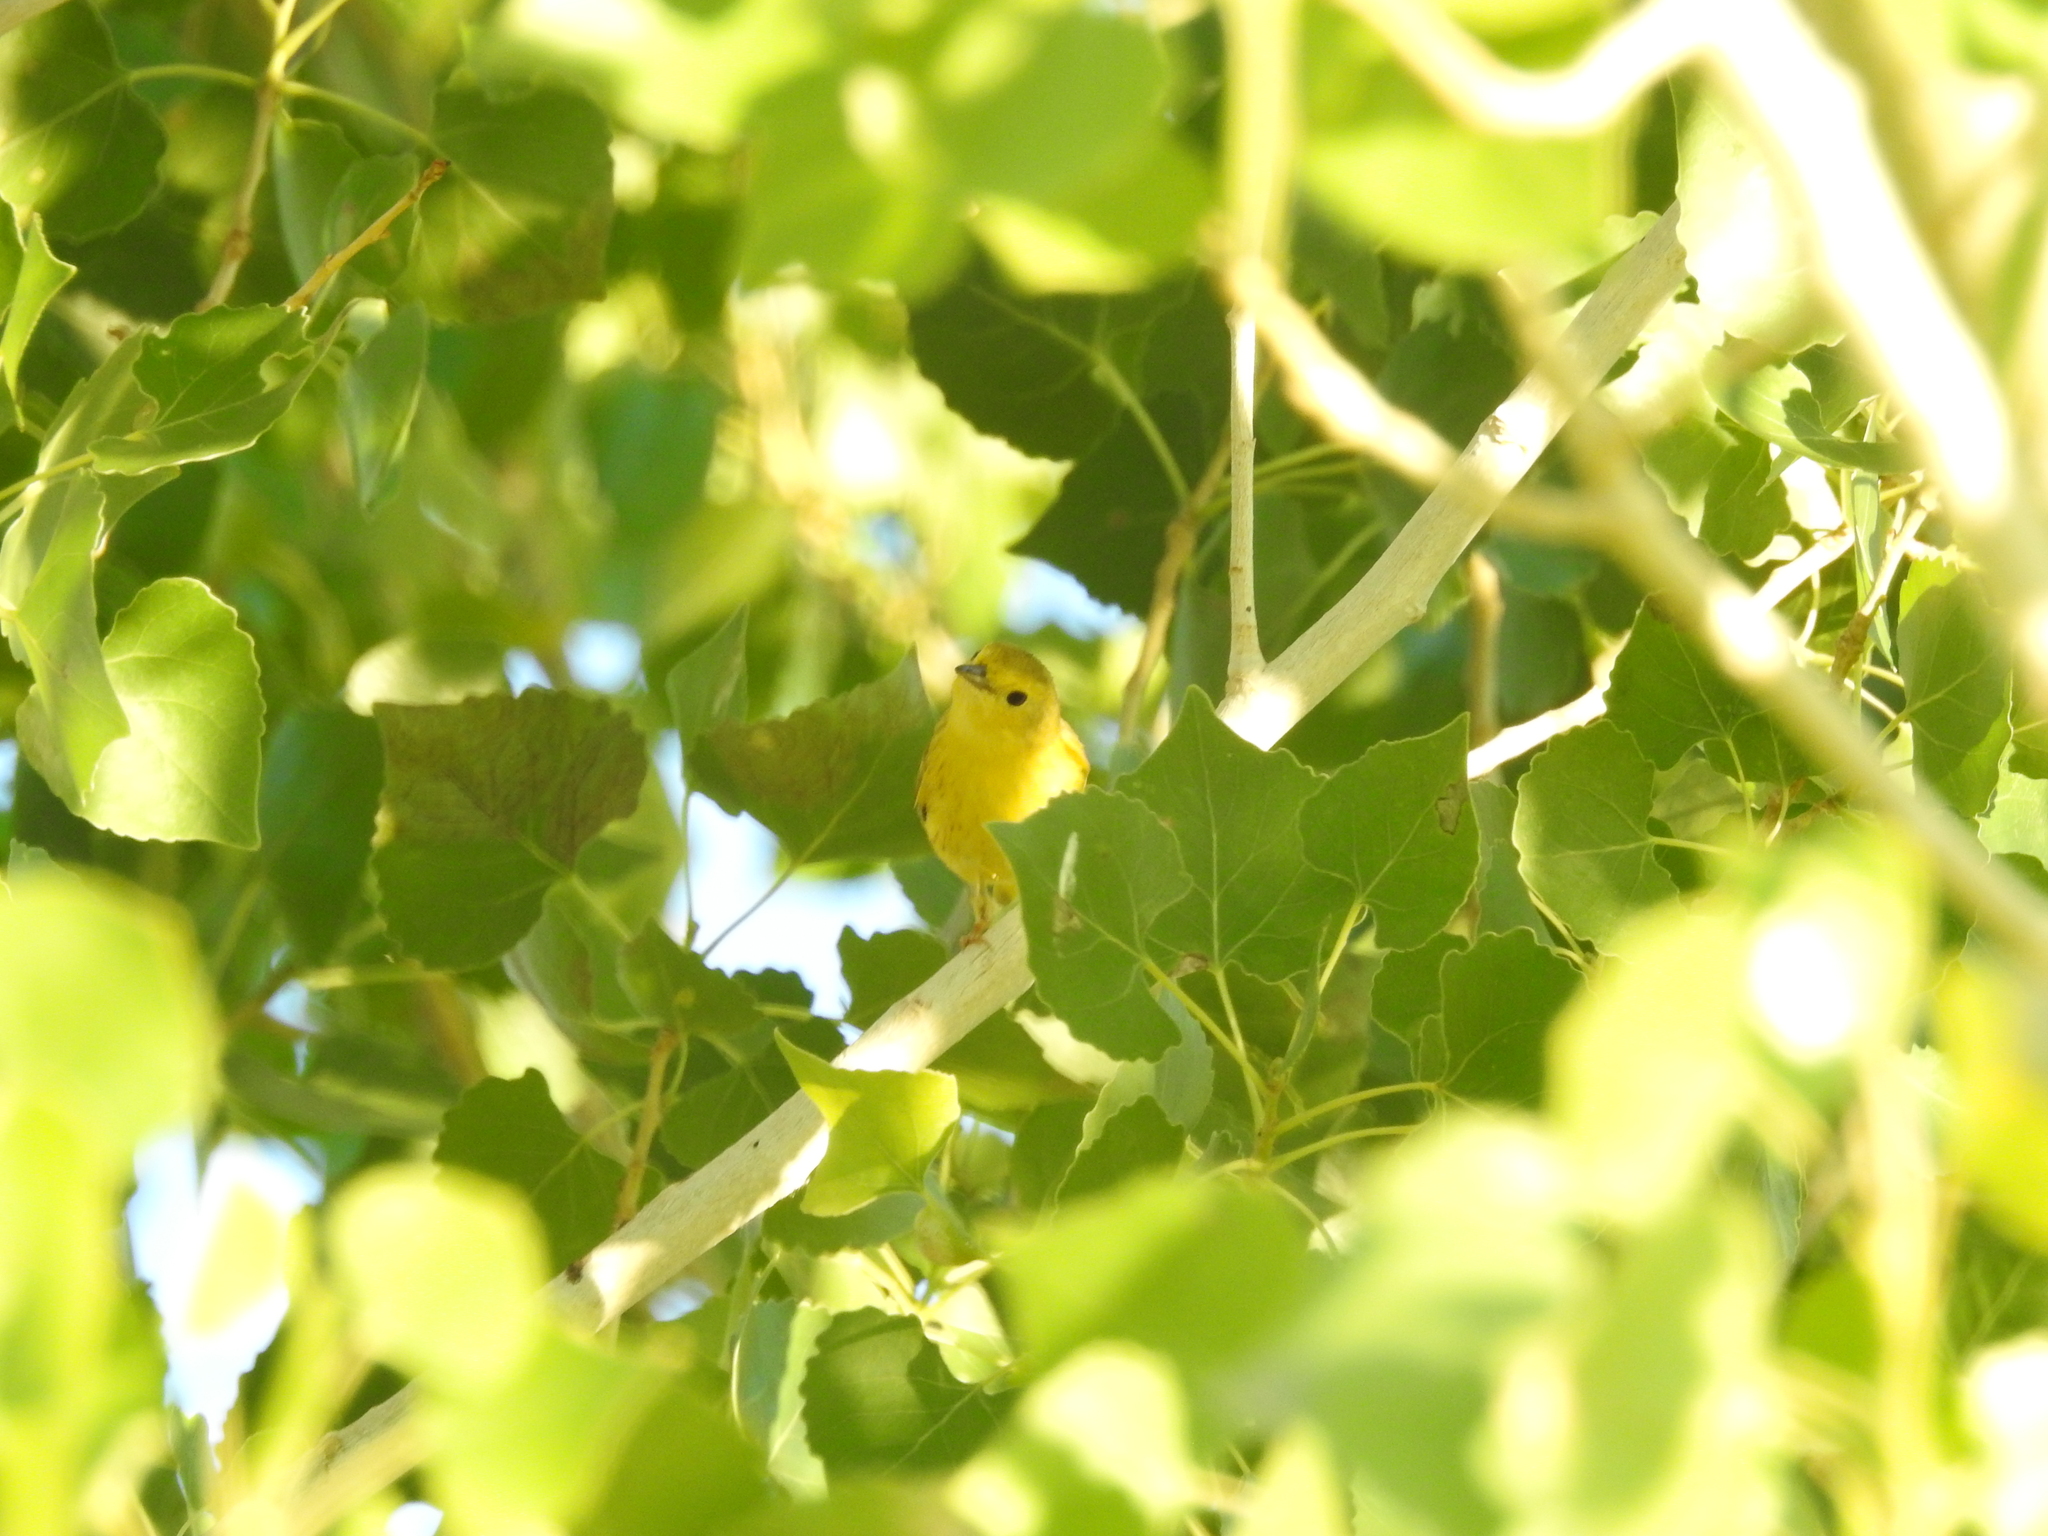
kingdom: Animalia
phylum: Chordata
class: Aves
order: Passeriformes
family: Parulidae
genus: Setophaga
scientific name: Setophaga petechia
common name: Yellow warbler
